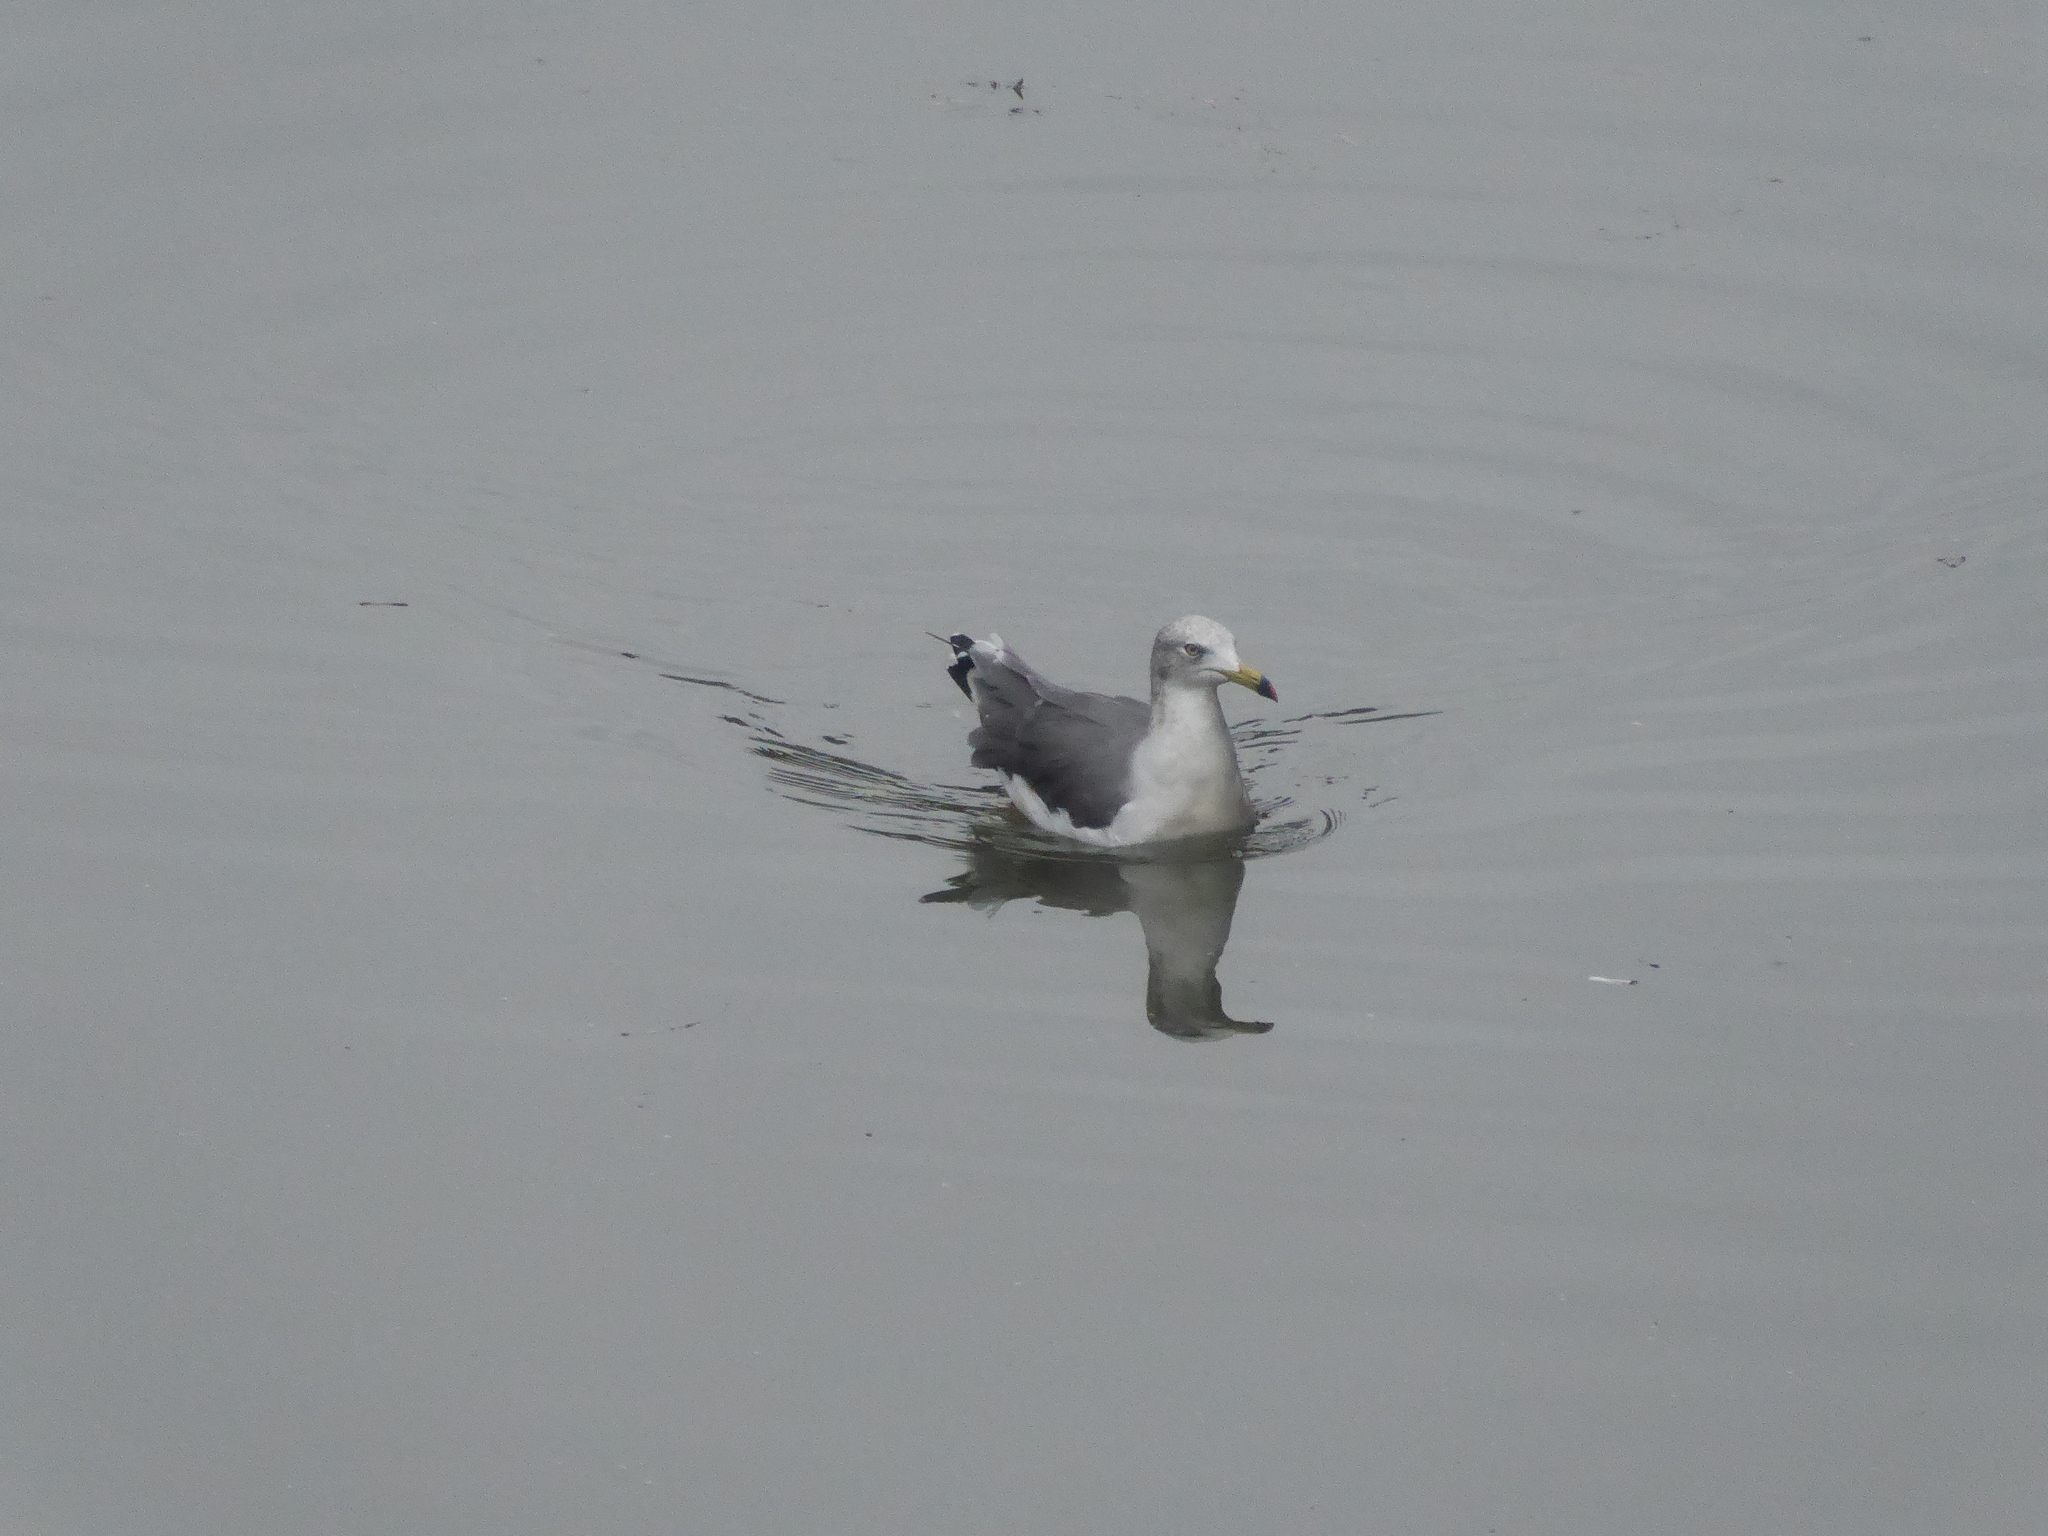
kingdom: Animalia
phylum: Chordata
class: Aves
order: Charadriiformes
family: Laridae
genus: Larus
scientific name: Larus crassirostris
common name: Black-tailed gull
